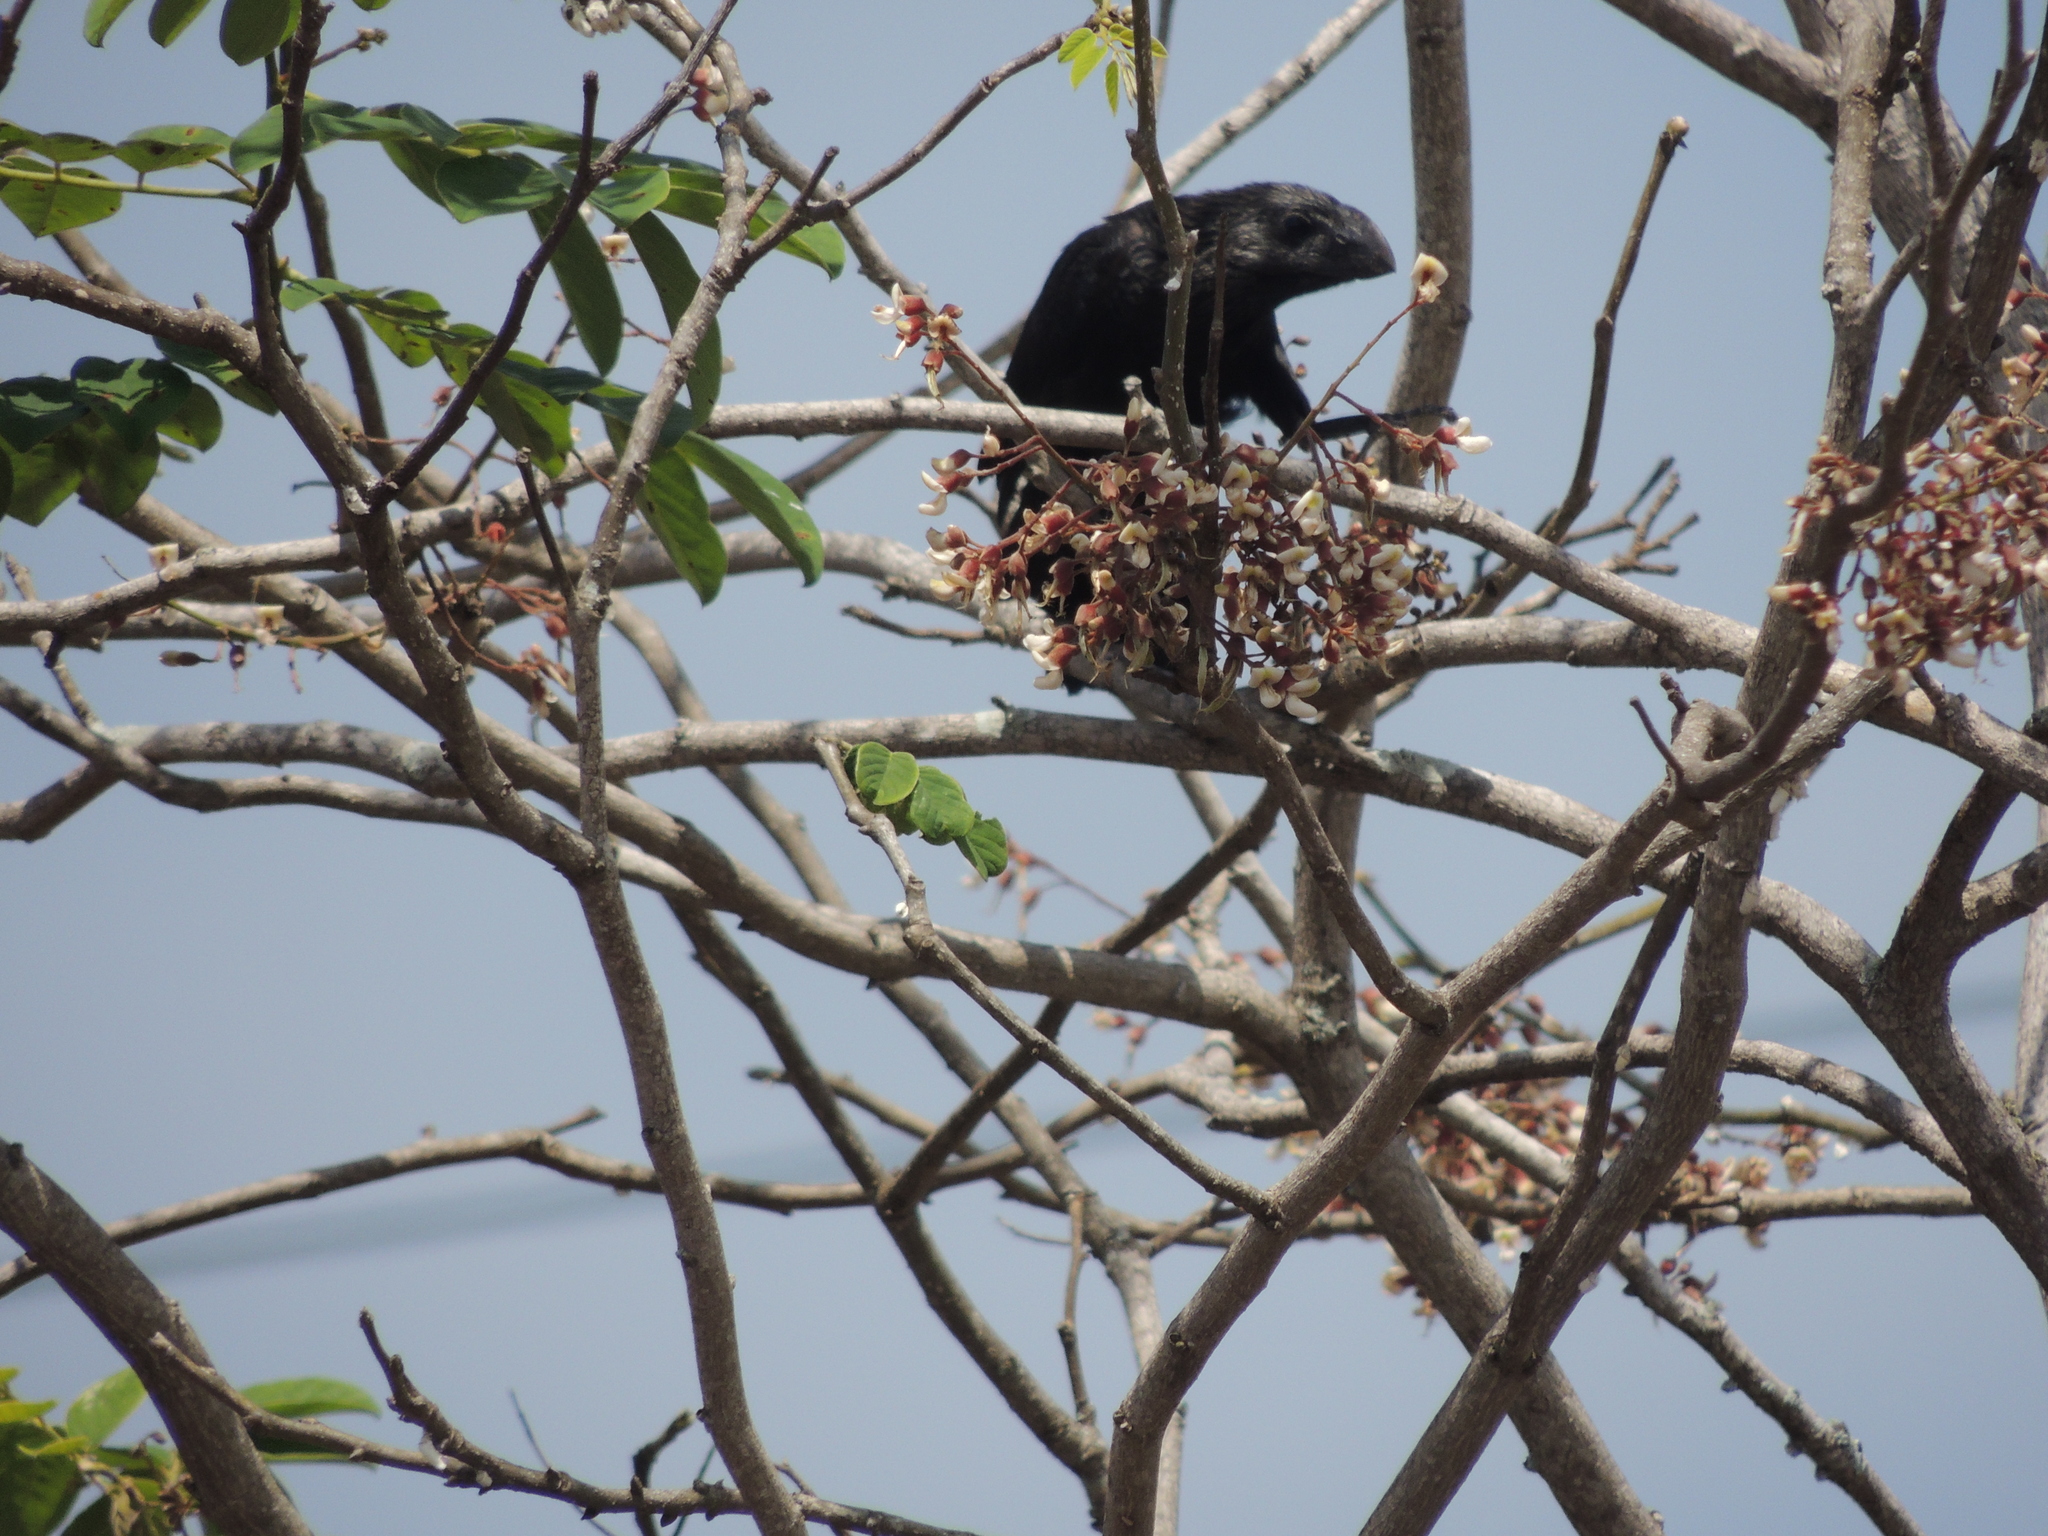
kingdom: Animalia
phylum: Chordata
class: Aves
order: Cuculiformes
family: Cuculidae
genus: Crotophaga
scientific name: Crotophaga ani
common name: Smooth-billed ani
